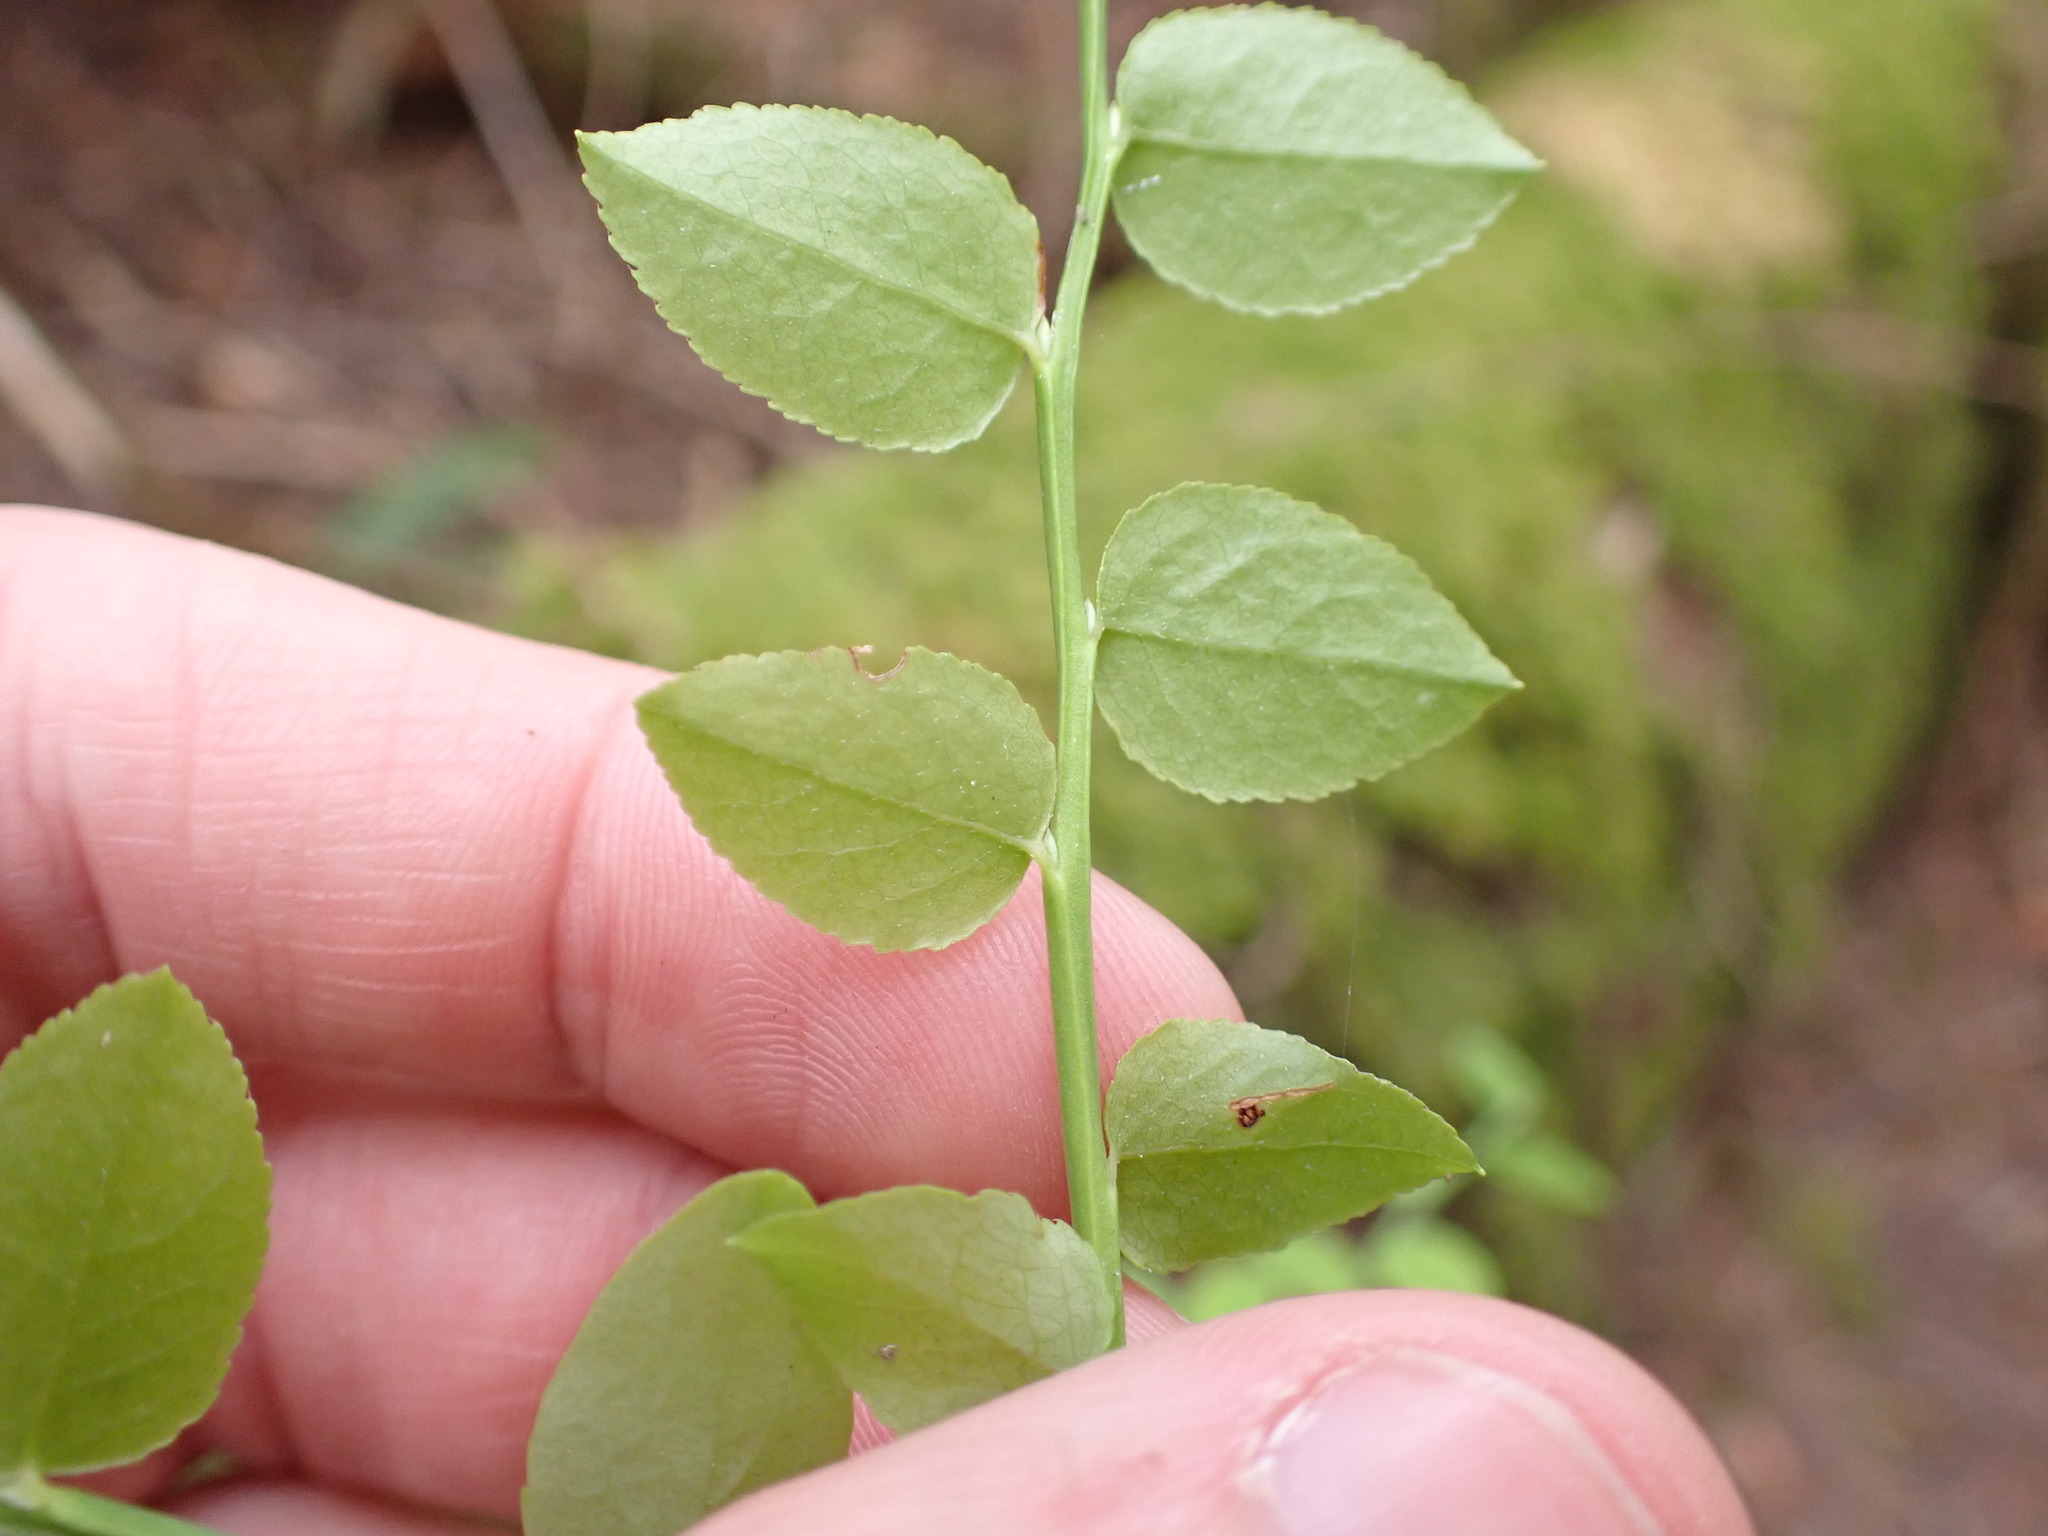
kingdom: Plantae
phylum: Tracheophyta
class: Magnoliopsida
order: Ericales
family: Ericaceae
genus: Vaccinium
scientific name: Vaccinium parvifolium
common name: Red-huckleberry
